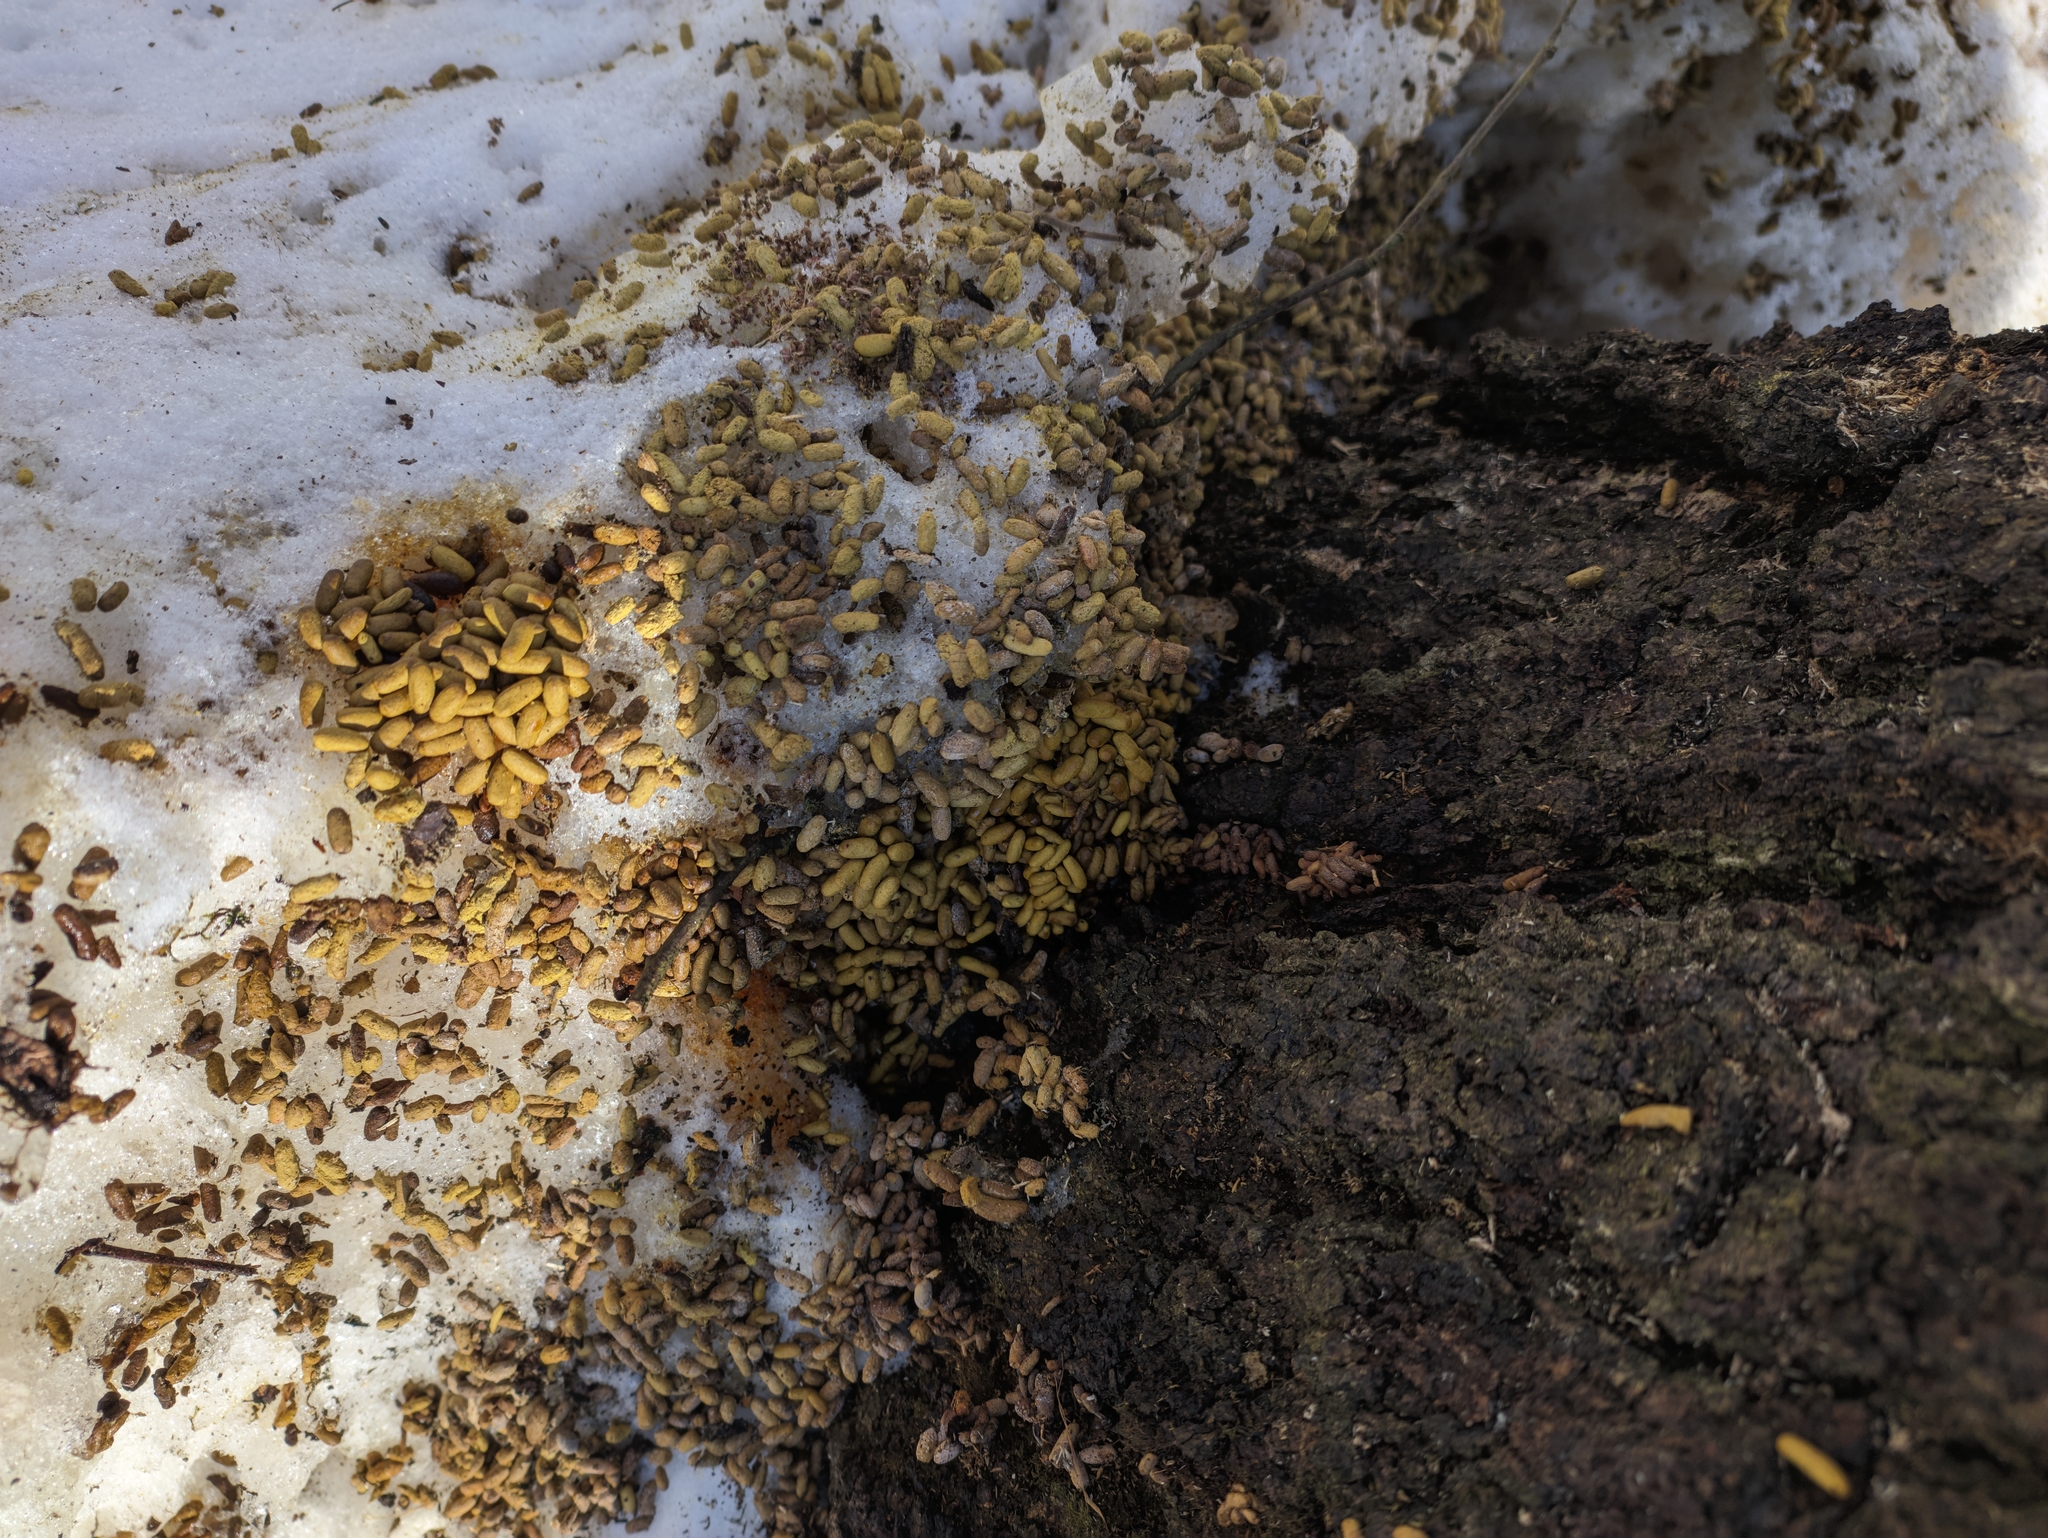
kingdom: Animalia
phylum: Chordata
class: Mammalia
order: Rodentia
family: Sciuridae
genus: Pteromys
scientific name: Pteromys volans
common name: Siberian flying squirrel
